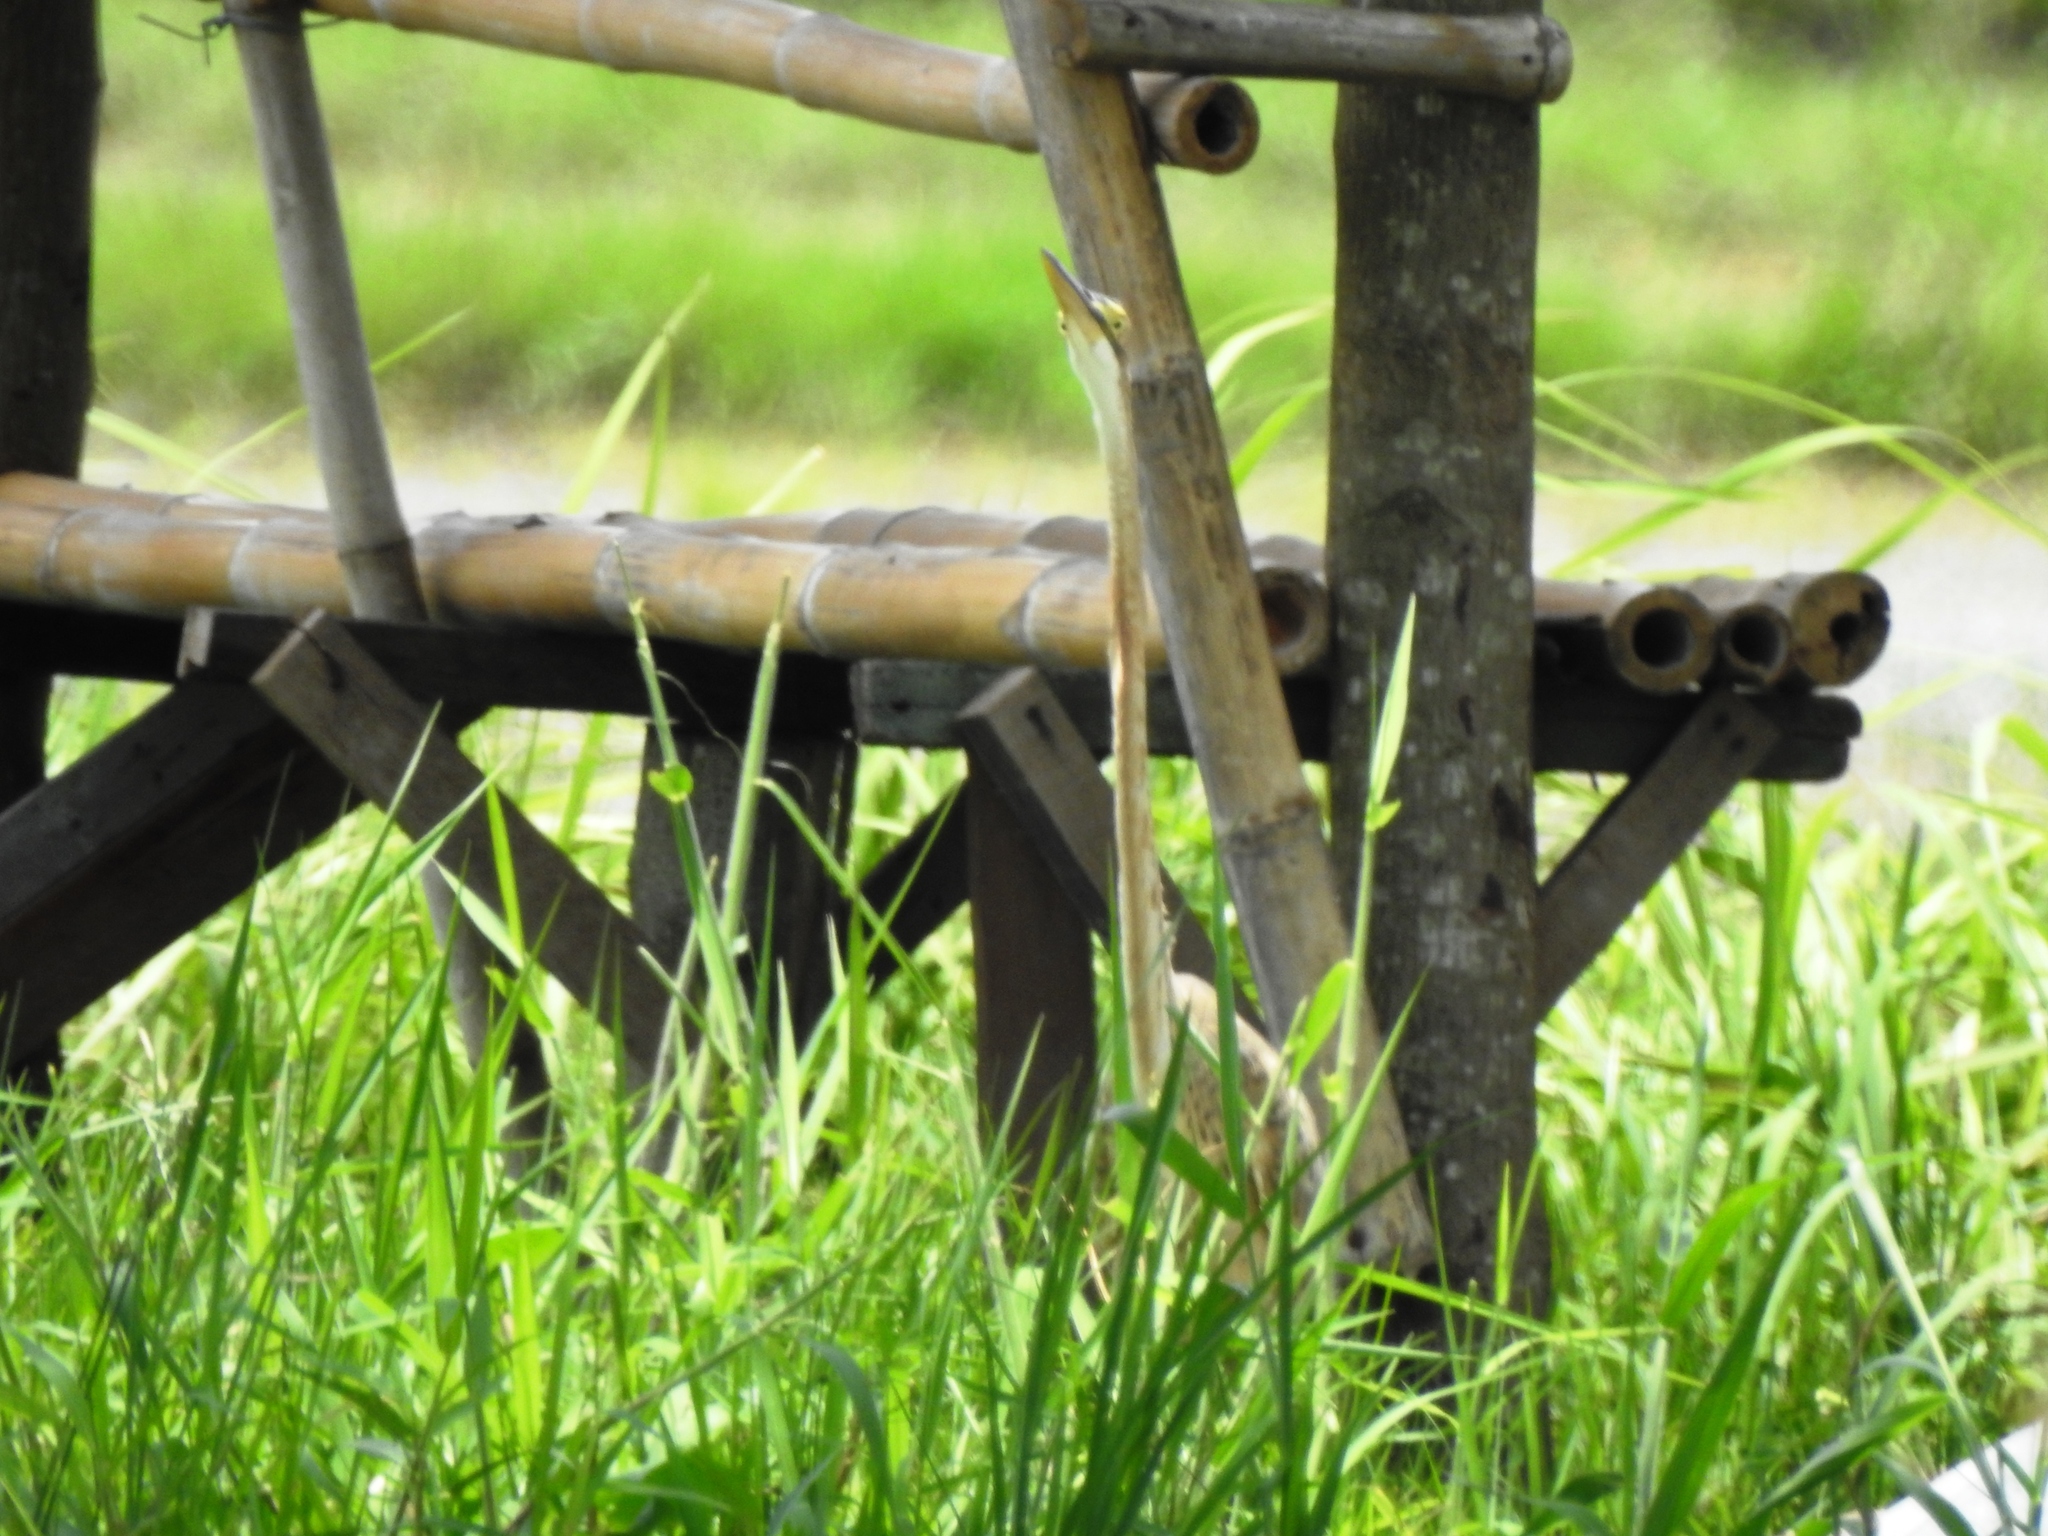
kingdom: Animalia
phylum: Chordata
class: Aves
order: Pelecaniformes
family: Ardeidae
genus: Ardea
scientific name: Ardea purpurea
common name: Purple heron
